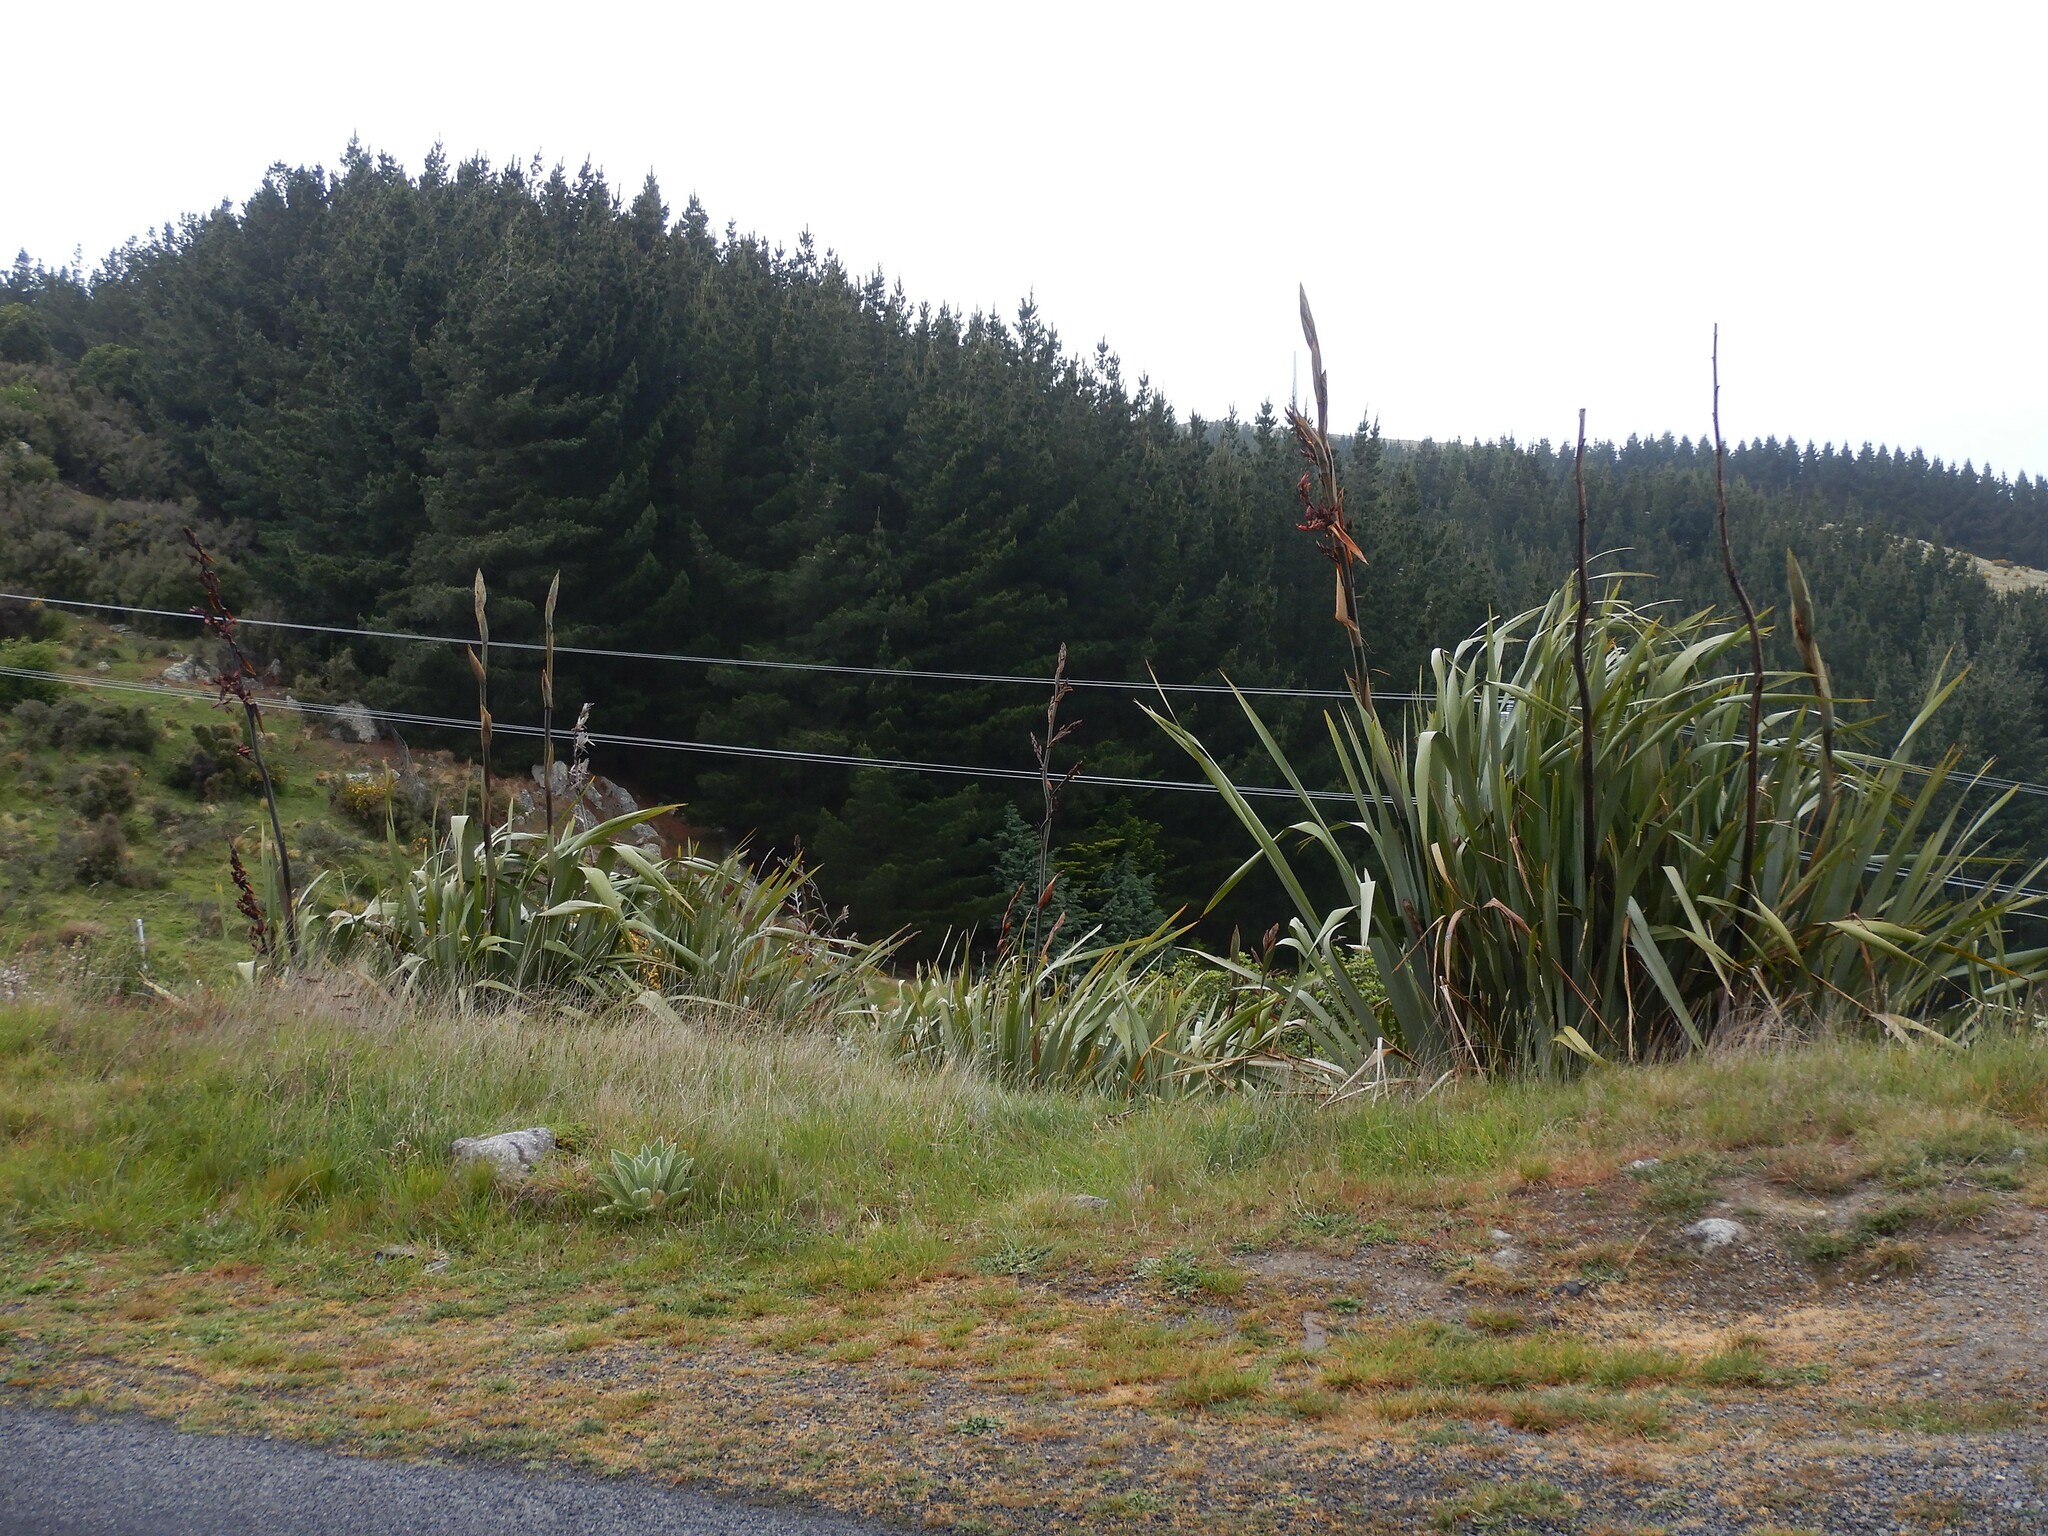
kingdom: Plantae
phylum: Tracheophyta
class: Liliopsida
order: Asparagales
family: Asphodelaceae
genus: Phormium
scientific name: Phormium tenax
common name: New zealand flax
